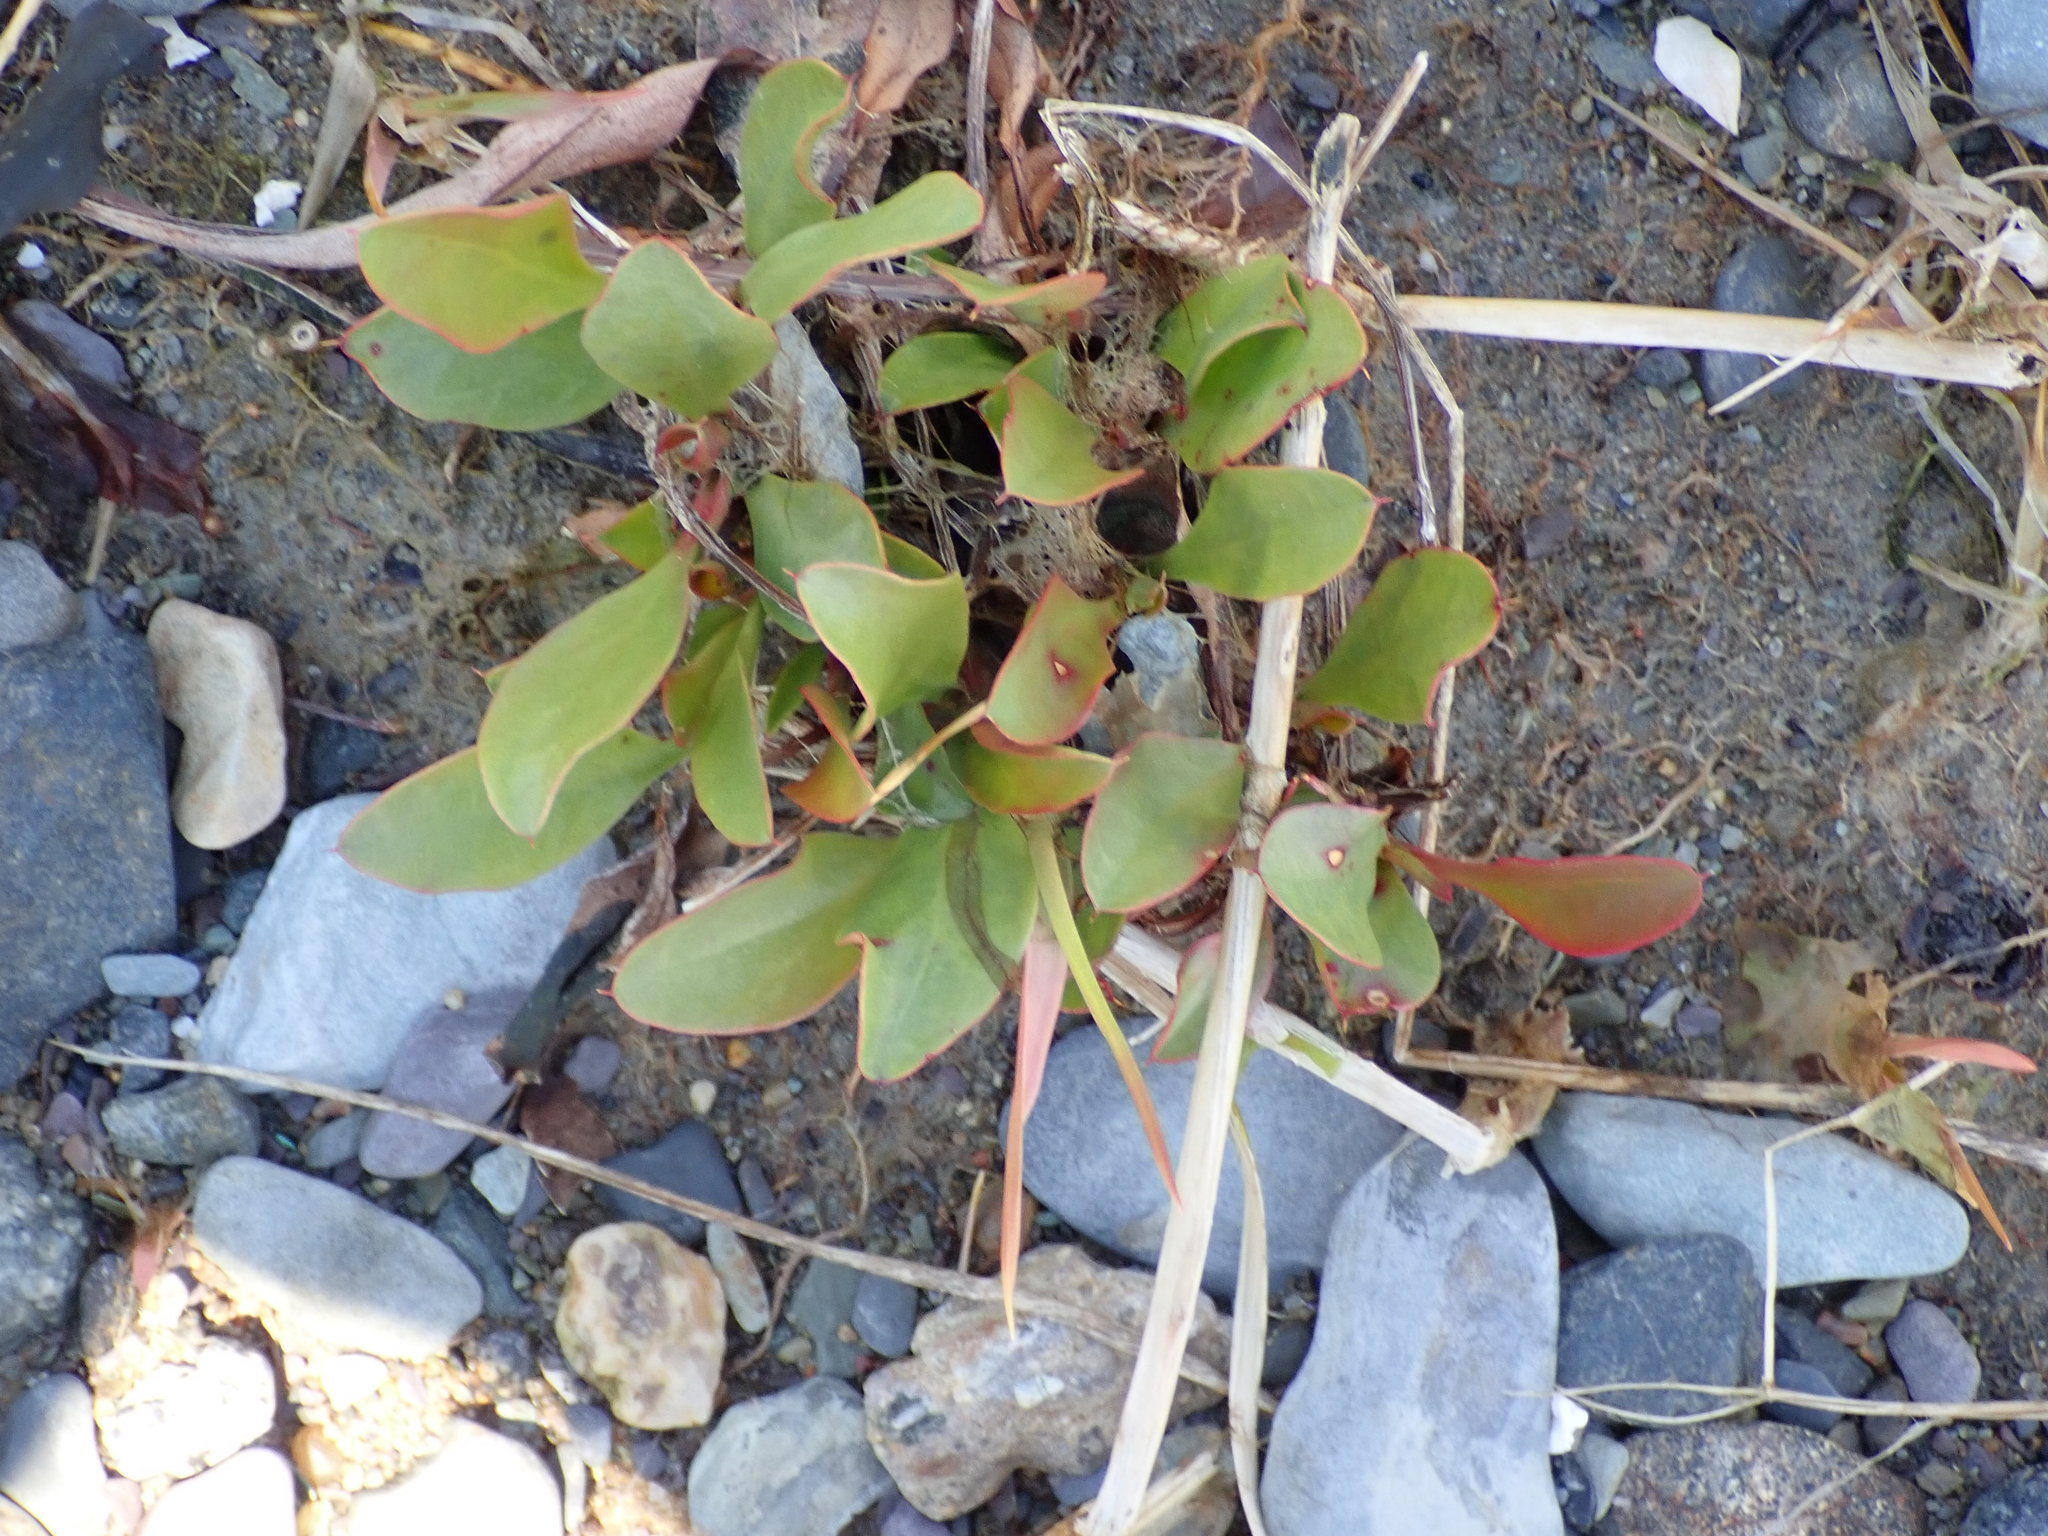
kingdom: Plantae
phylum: Tracheophyta
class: Magnoliopsida
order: Caryophyllales
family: Plumbaginaceae
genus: Limonium
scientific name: Limonium carolinianum
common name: Carolina sea lavender
